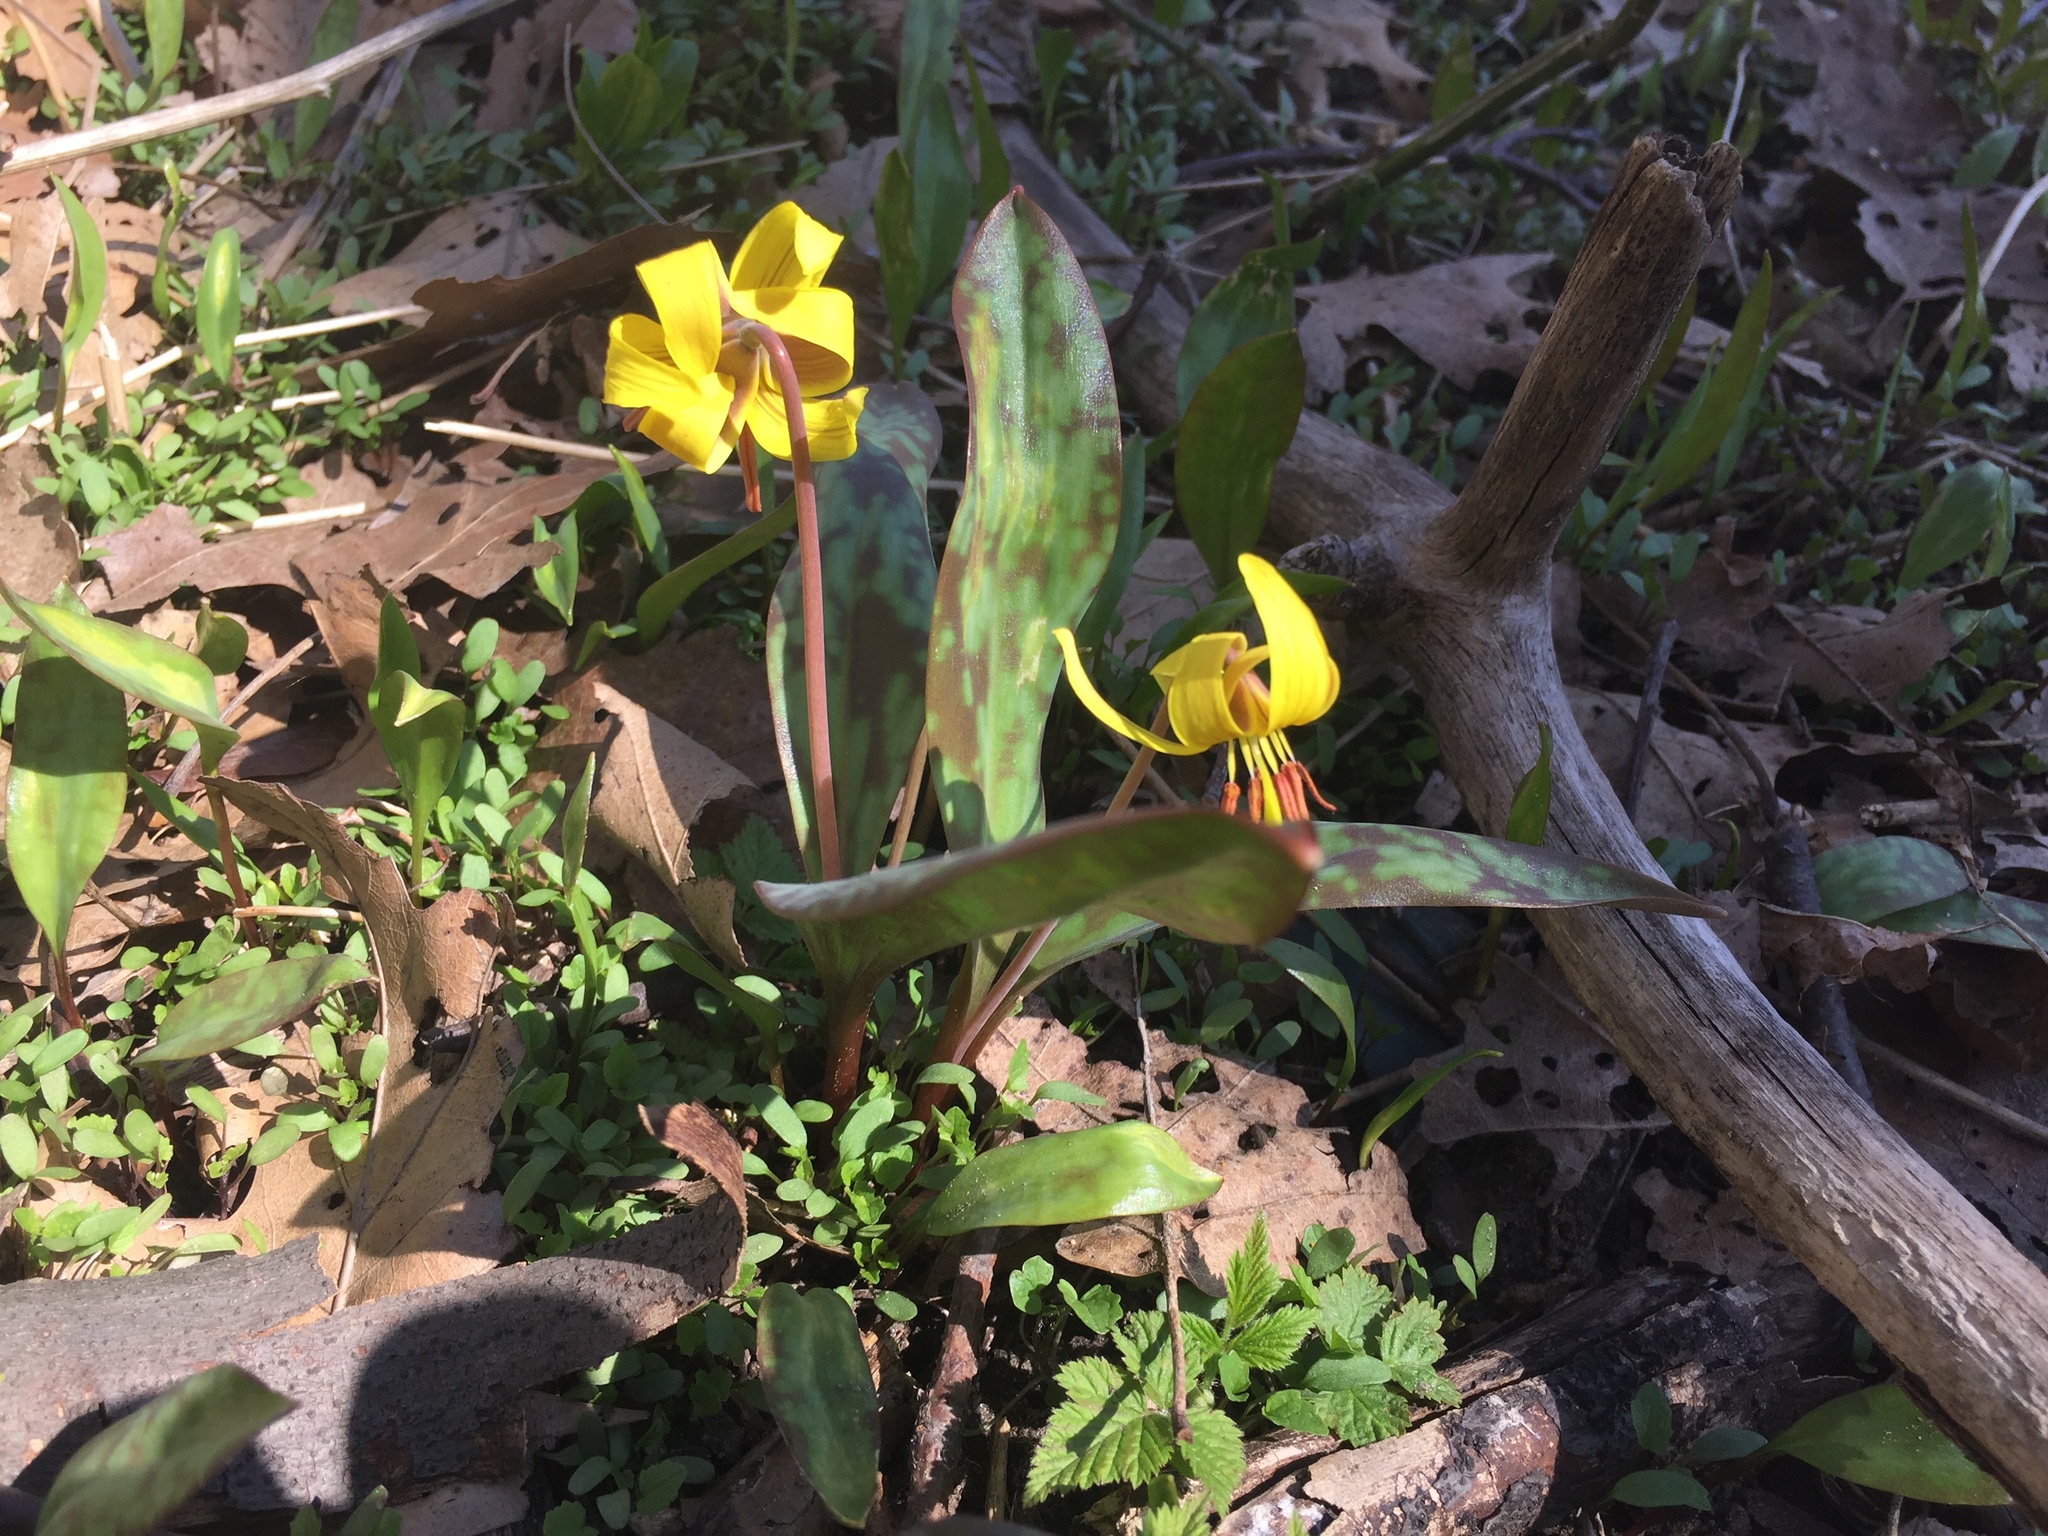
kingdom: Plantae
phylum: Tracheophyta
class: Liliopsida
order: Liliales
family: Liliaceae
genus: Erythronium
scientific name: Erythronium americanum
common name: Yellow adder's-tongue
